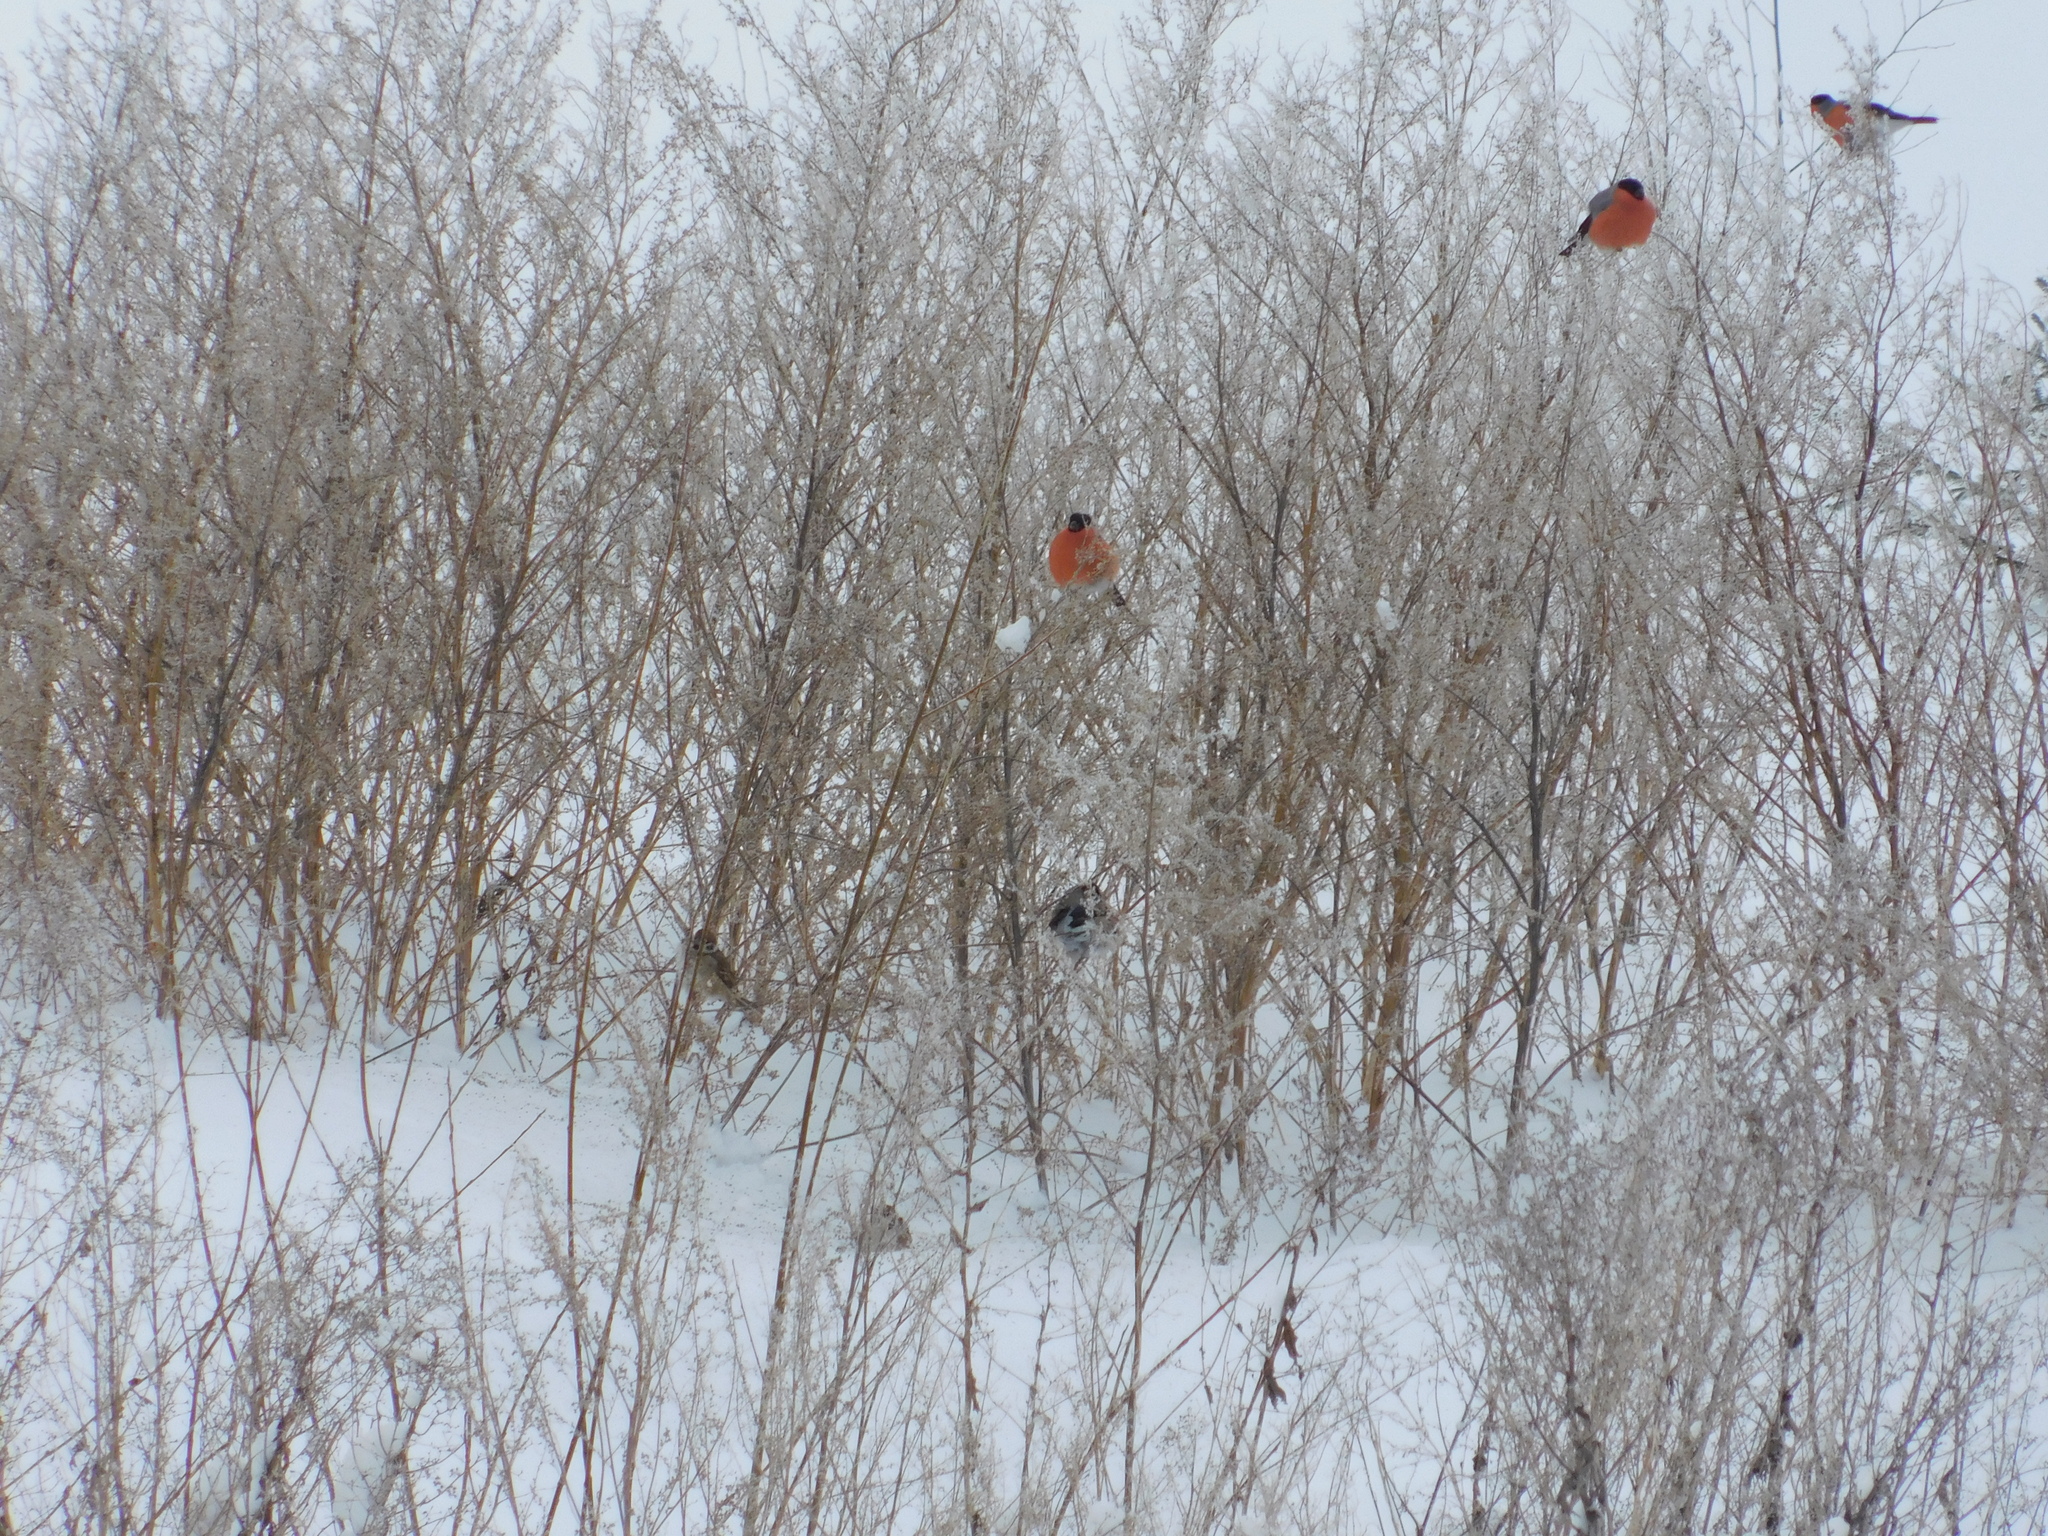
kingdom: Animalia
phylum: Chordata
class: Aves
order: Passeriformes
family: Passeridae
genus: Passer
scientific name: Passer montanus
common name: Eurasian tree sparrow
